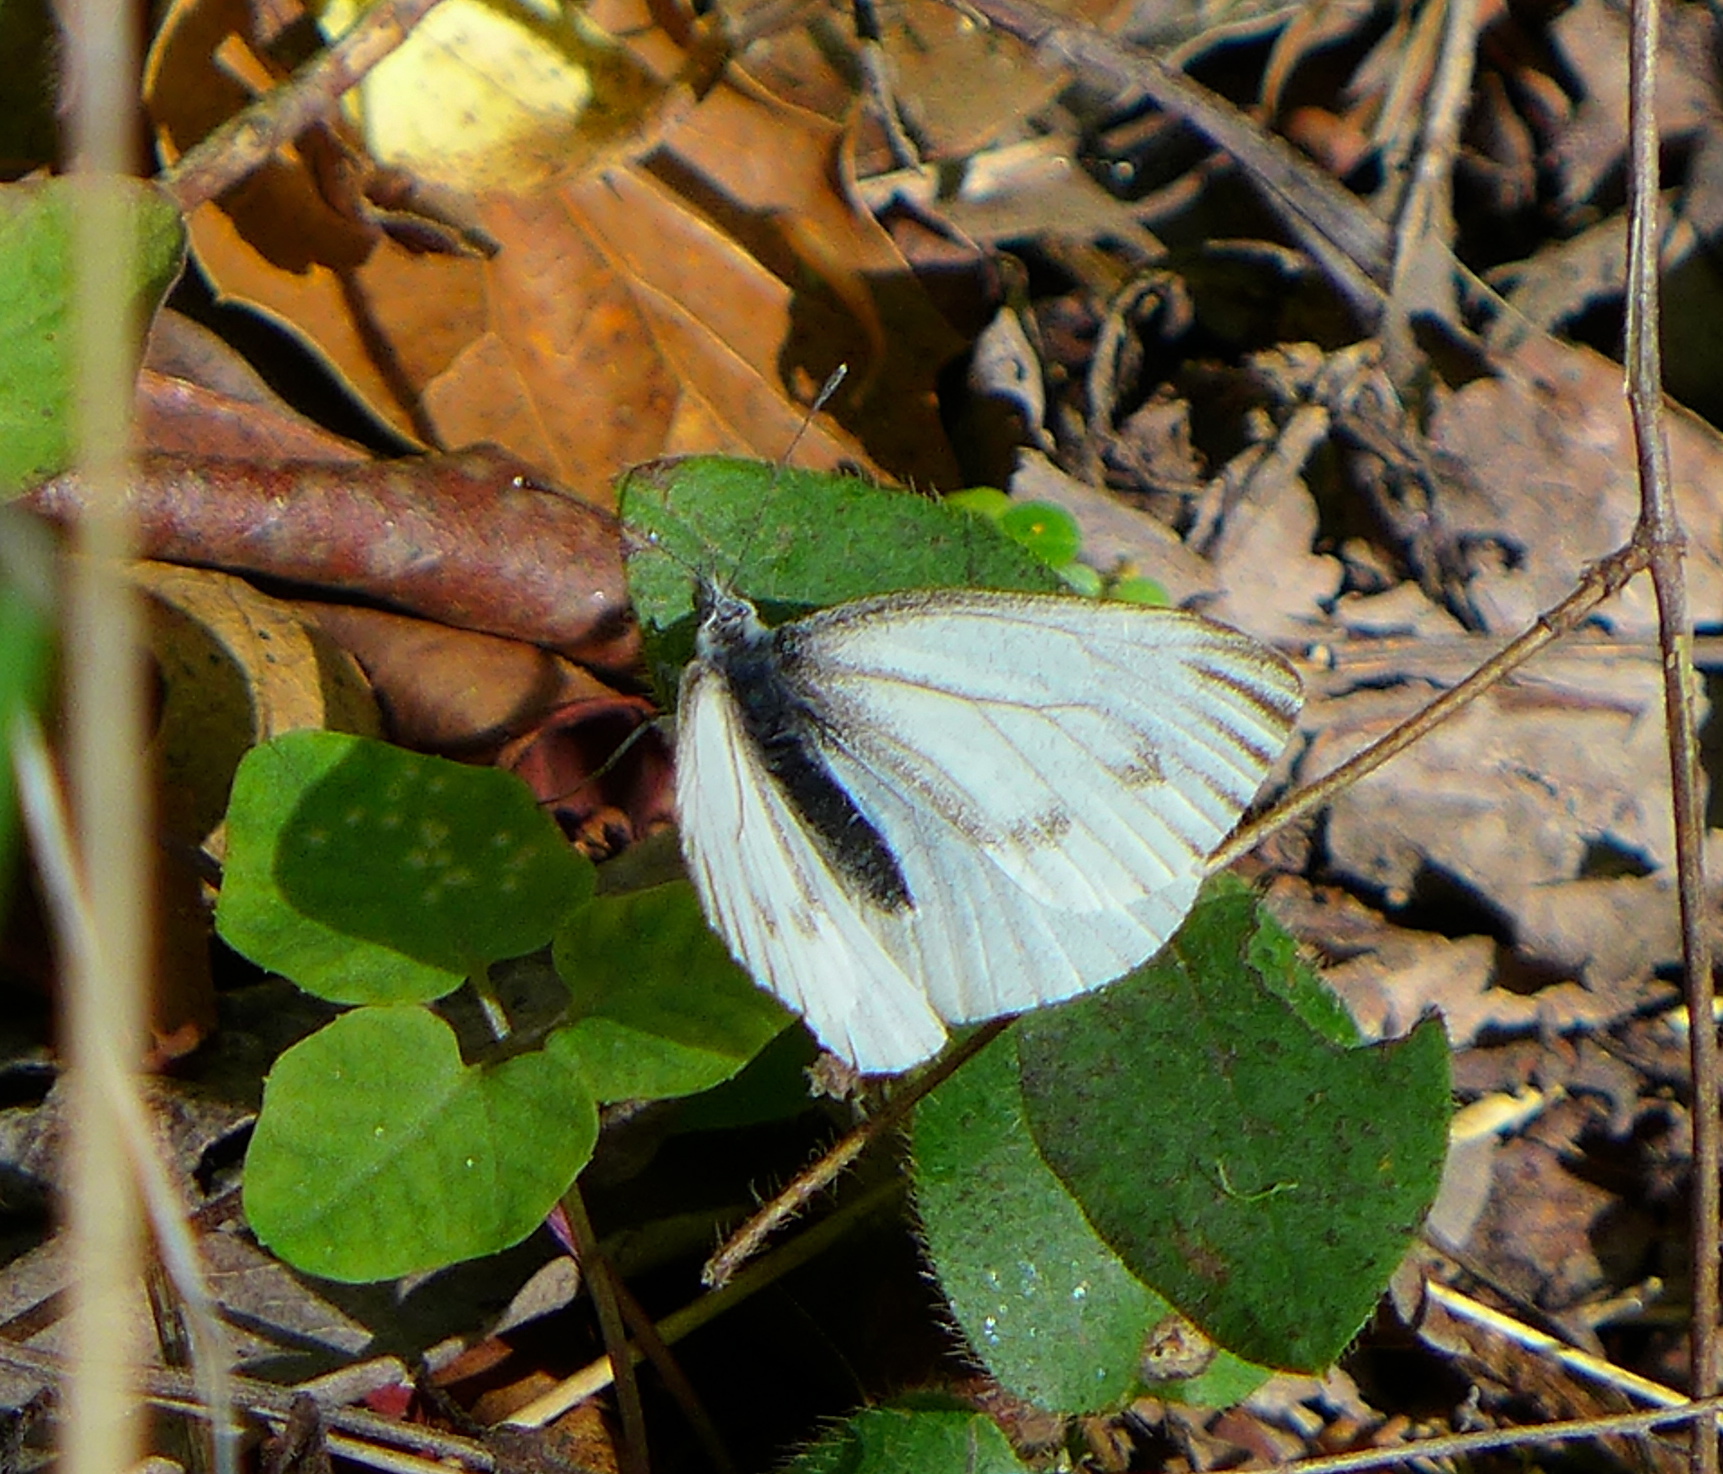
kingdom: Animalia
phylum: Arthropoda
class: Insecta
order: Lepidoptera
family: Pieridae
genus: Pieris
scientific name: Pieris marginalis
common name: Margined white
